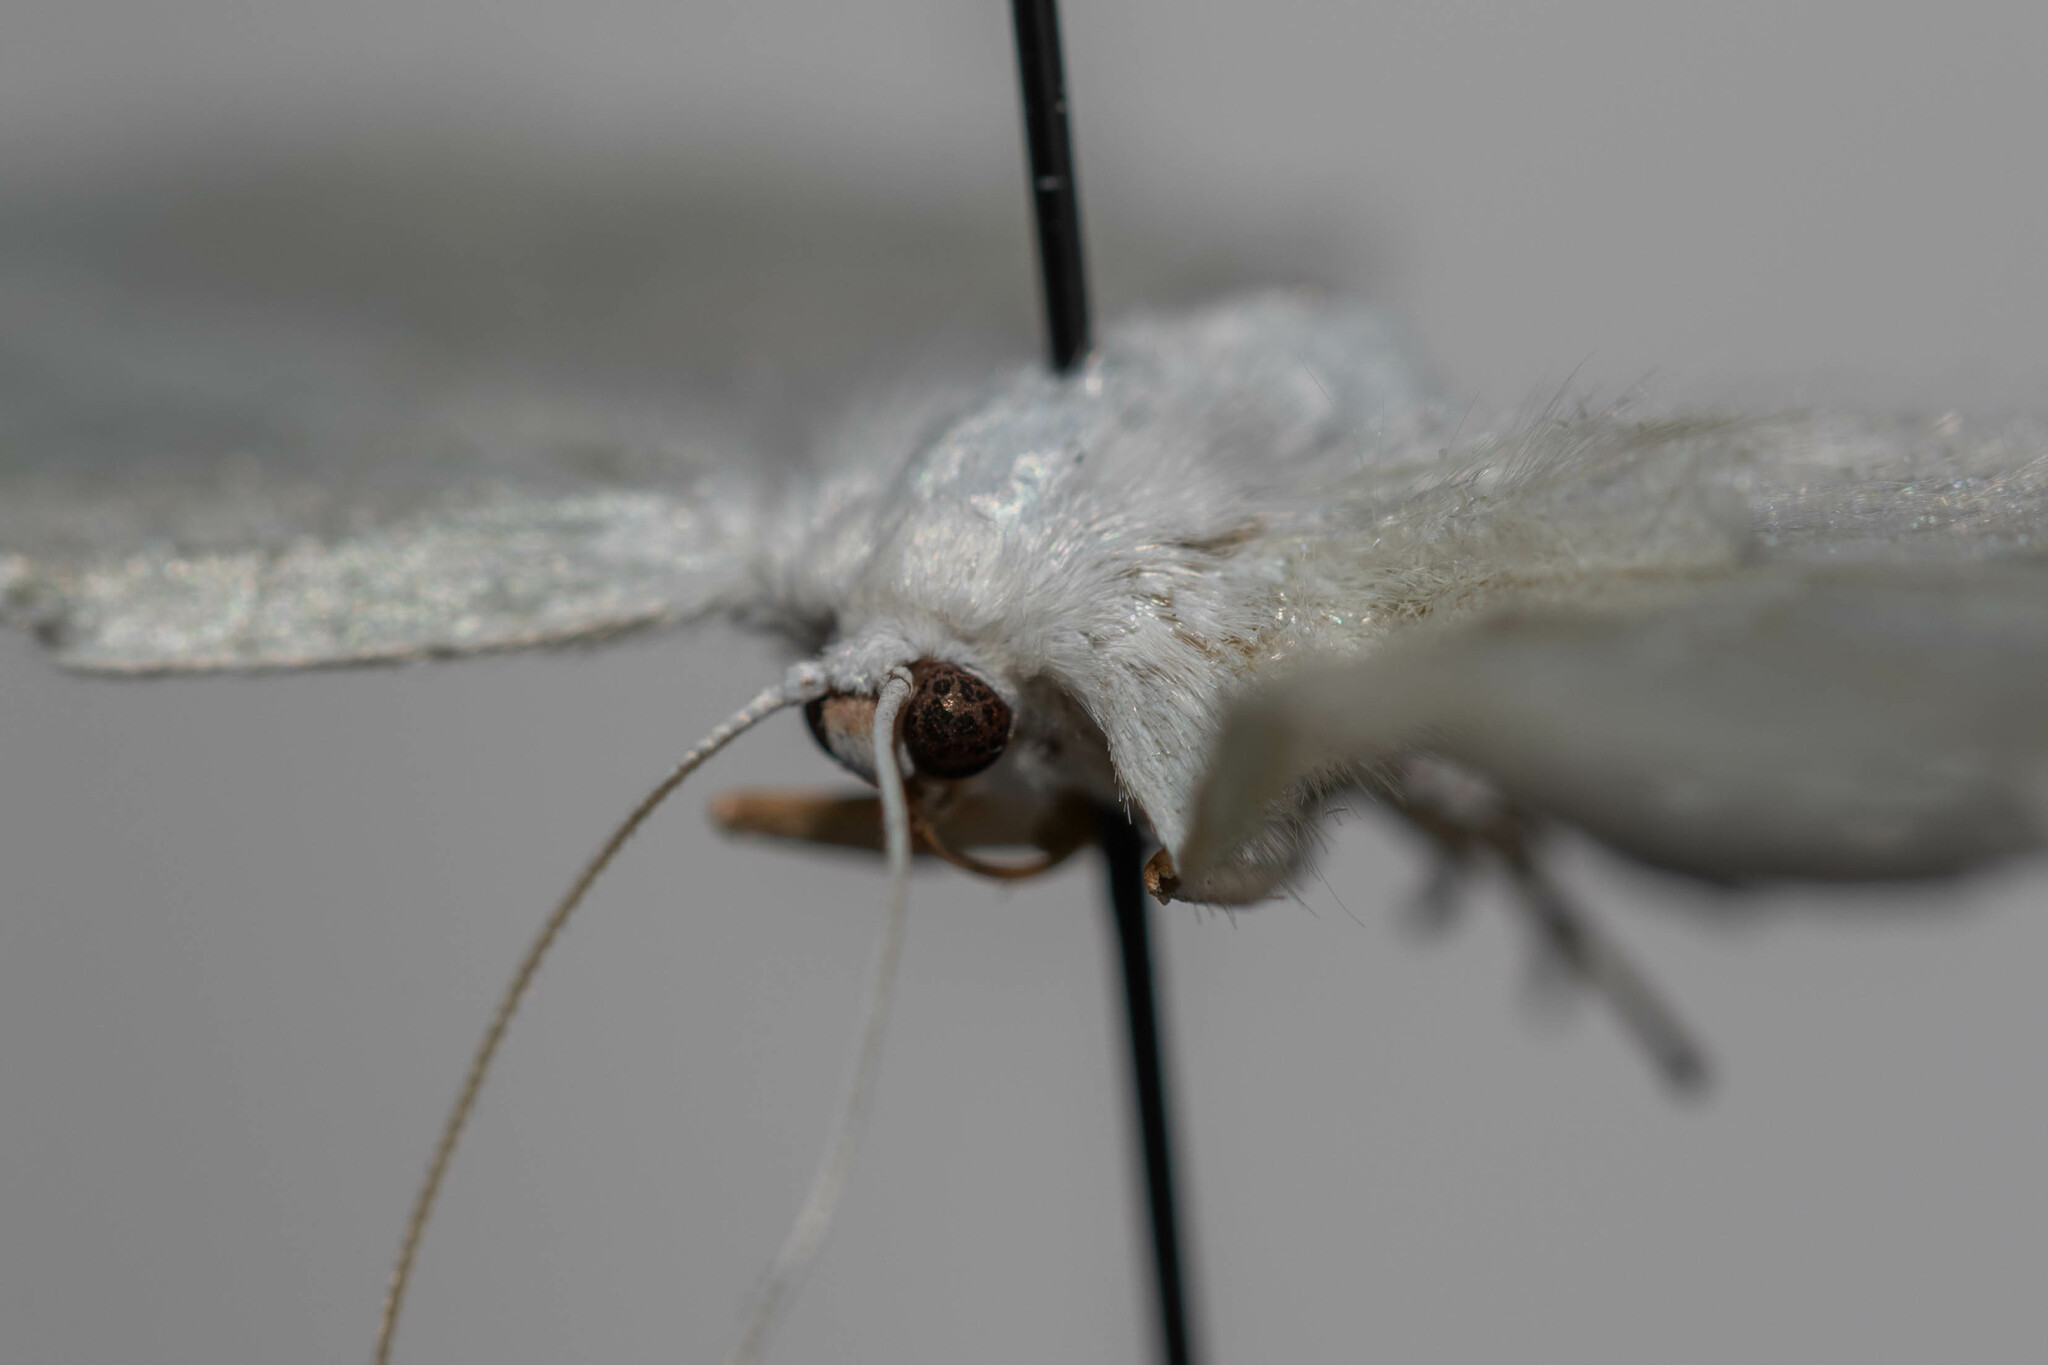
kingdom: Animalia
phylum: Arthropoda
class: Insecta
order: Lepidoptera
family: Geometridae
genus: Campaea
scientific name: Campaea perlata
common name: Fringed looper
